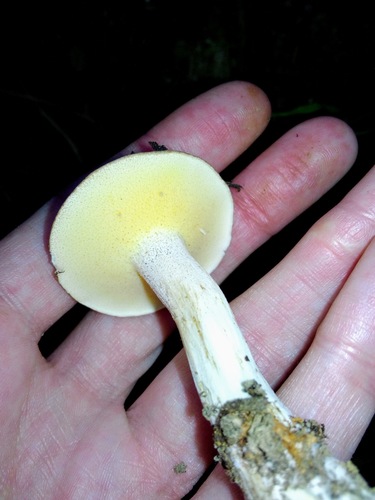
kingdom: Fungi
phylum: Basidiomycota
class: Agaricomycetes
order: Boletales
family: Suillaceae
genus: Suillus
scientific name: Suillus placidus
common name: Slippery white bolete
